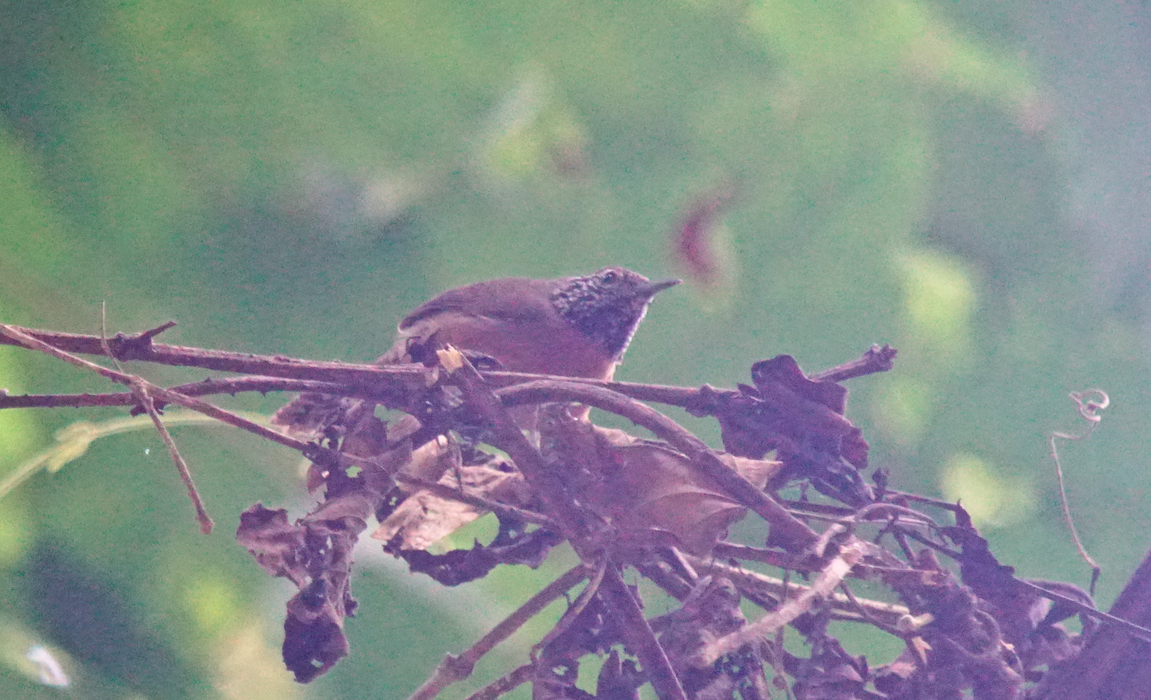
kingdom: Animalia
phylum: Chordata
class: Aves
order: Passeriformes
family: Troglodytidae
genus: Pheugopedius
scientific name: Pheugopedius rutilus
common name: Rufous-breasted wren
